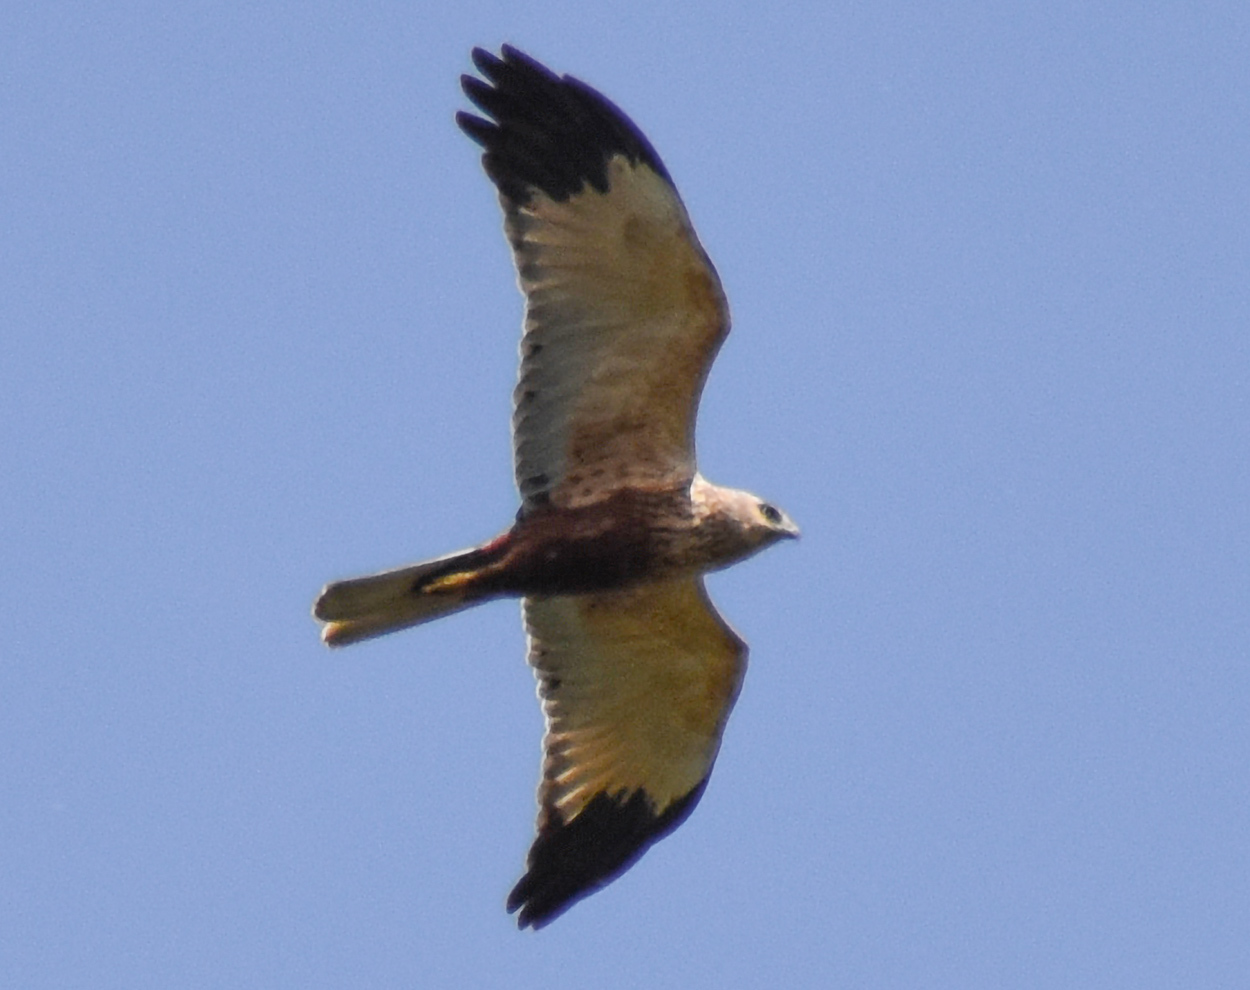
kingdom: Animalia
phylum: Chordata
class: Aves
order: Accipitriformes
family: Accipitridae
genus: Circus
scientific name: Circus aeruginosus
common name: Western marsh harrier
